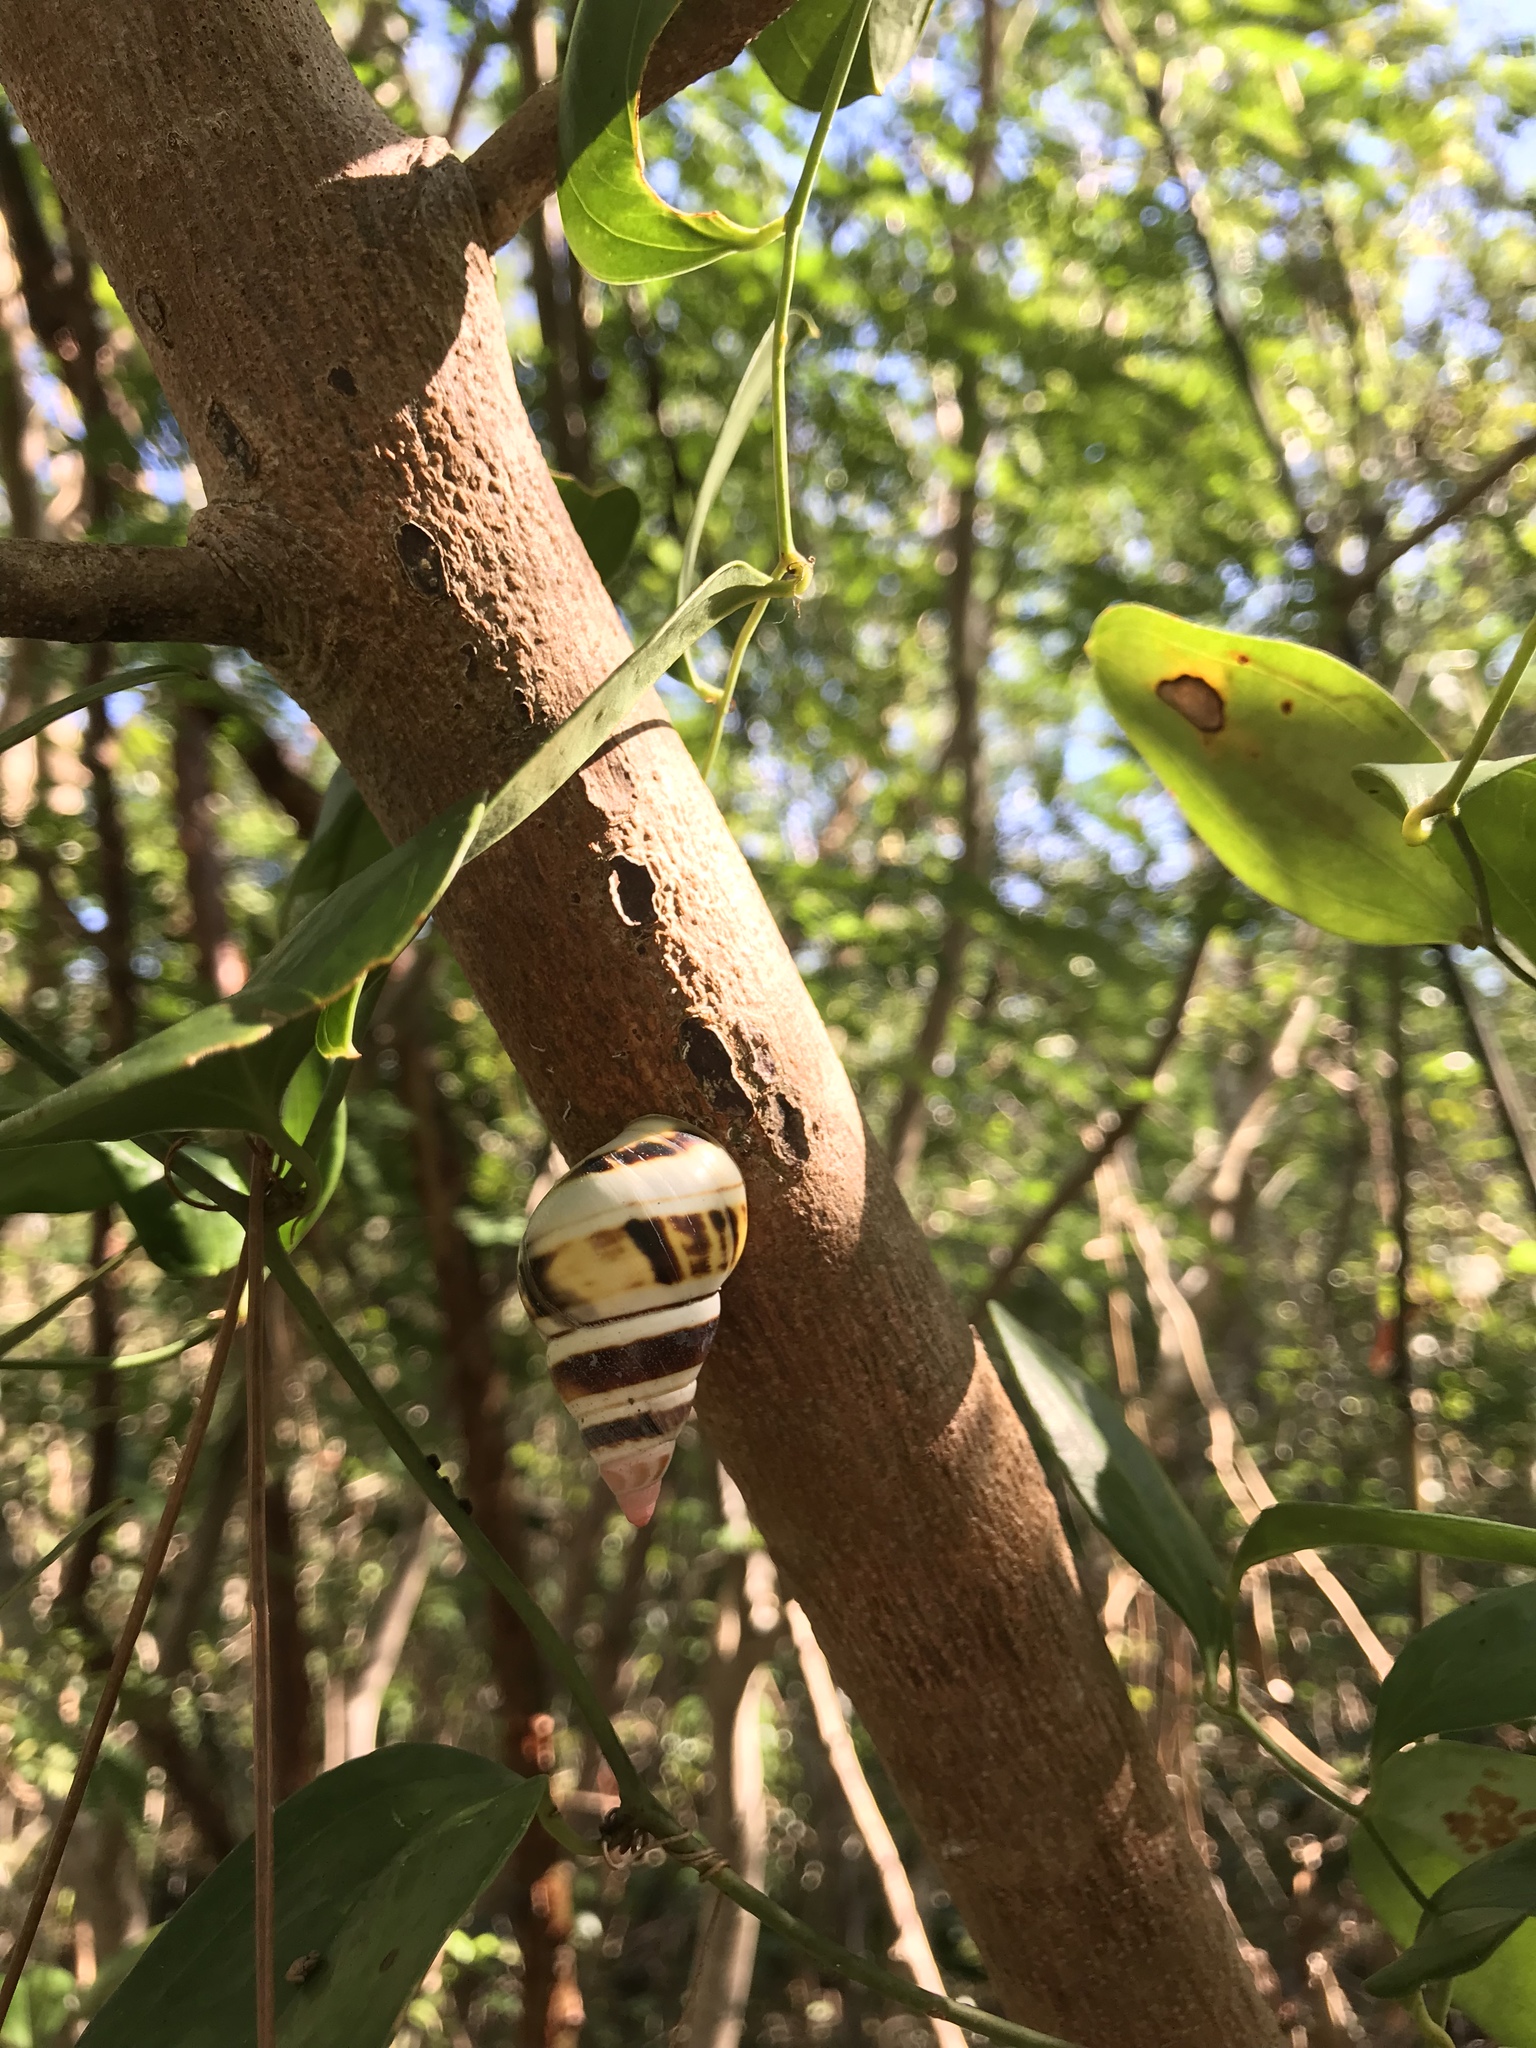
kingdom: Animalia
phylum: Mollusca
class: Gastropoda
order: Stylommatophora
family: Orthalicidae
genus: Liguus
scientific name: Liguus fasciatus
